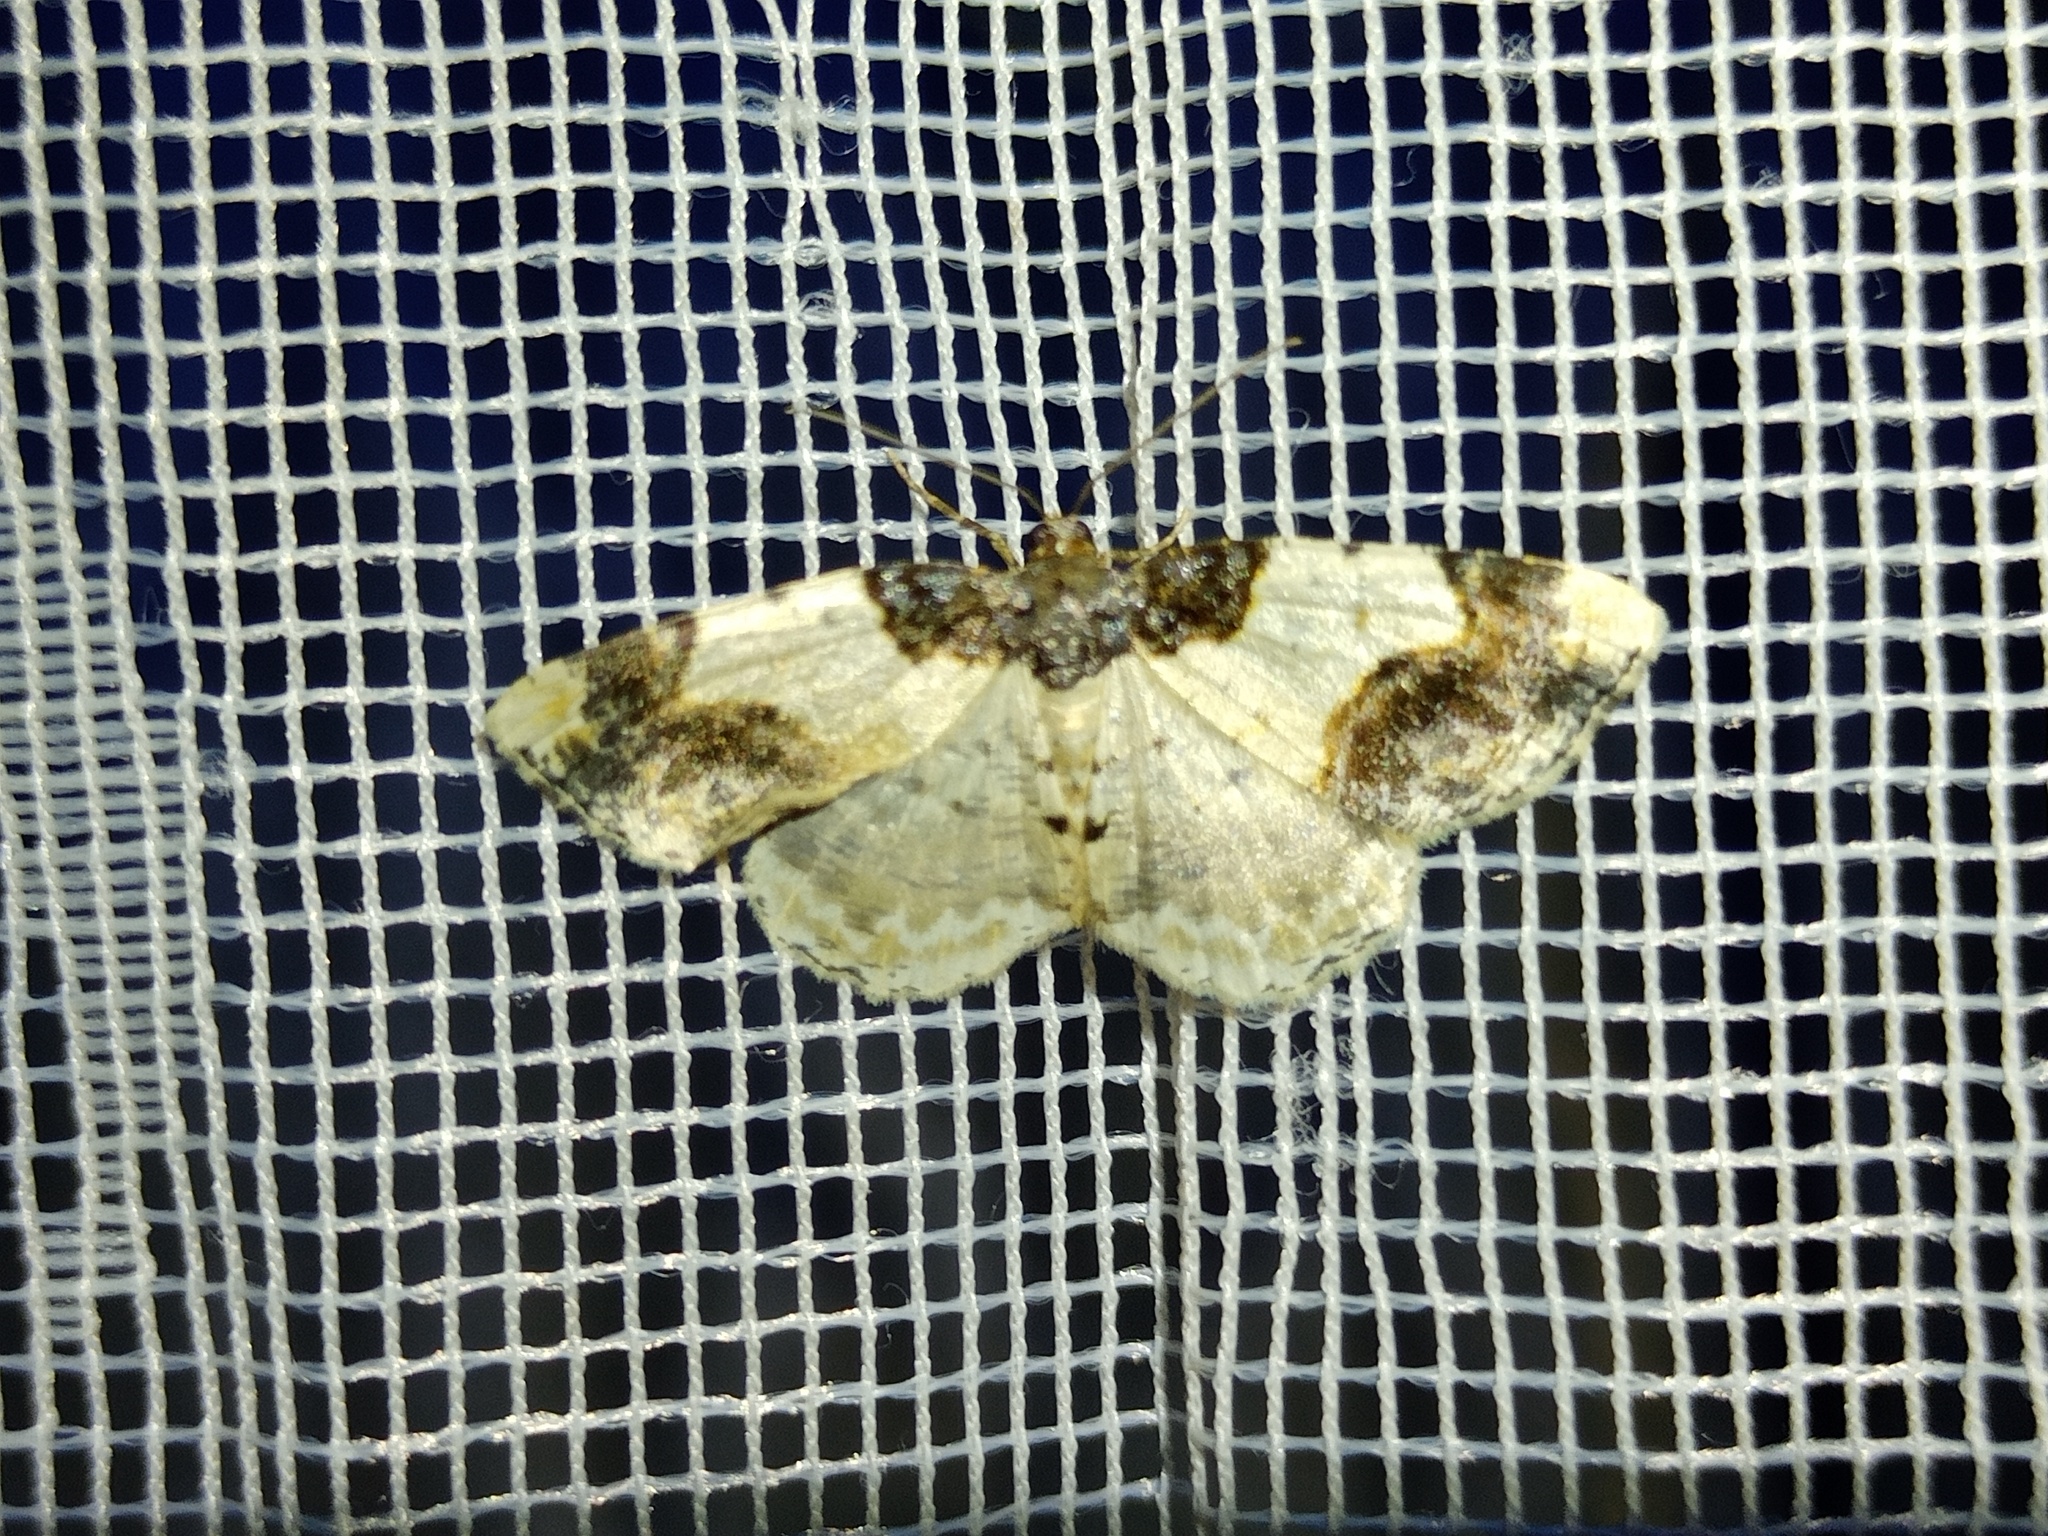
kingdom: Animalia
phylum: Arthropoda
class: Insecta
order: Lepidoptera
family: Geometridae
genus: Ligdia
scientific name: Ligdia adustata
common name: Scorched carpet
